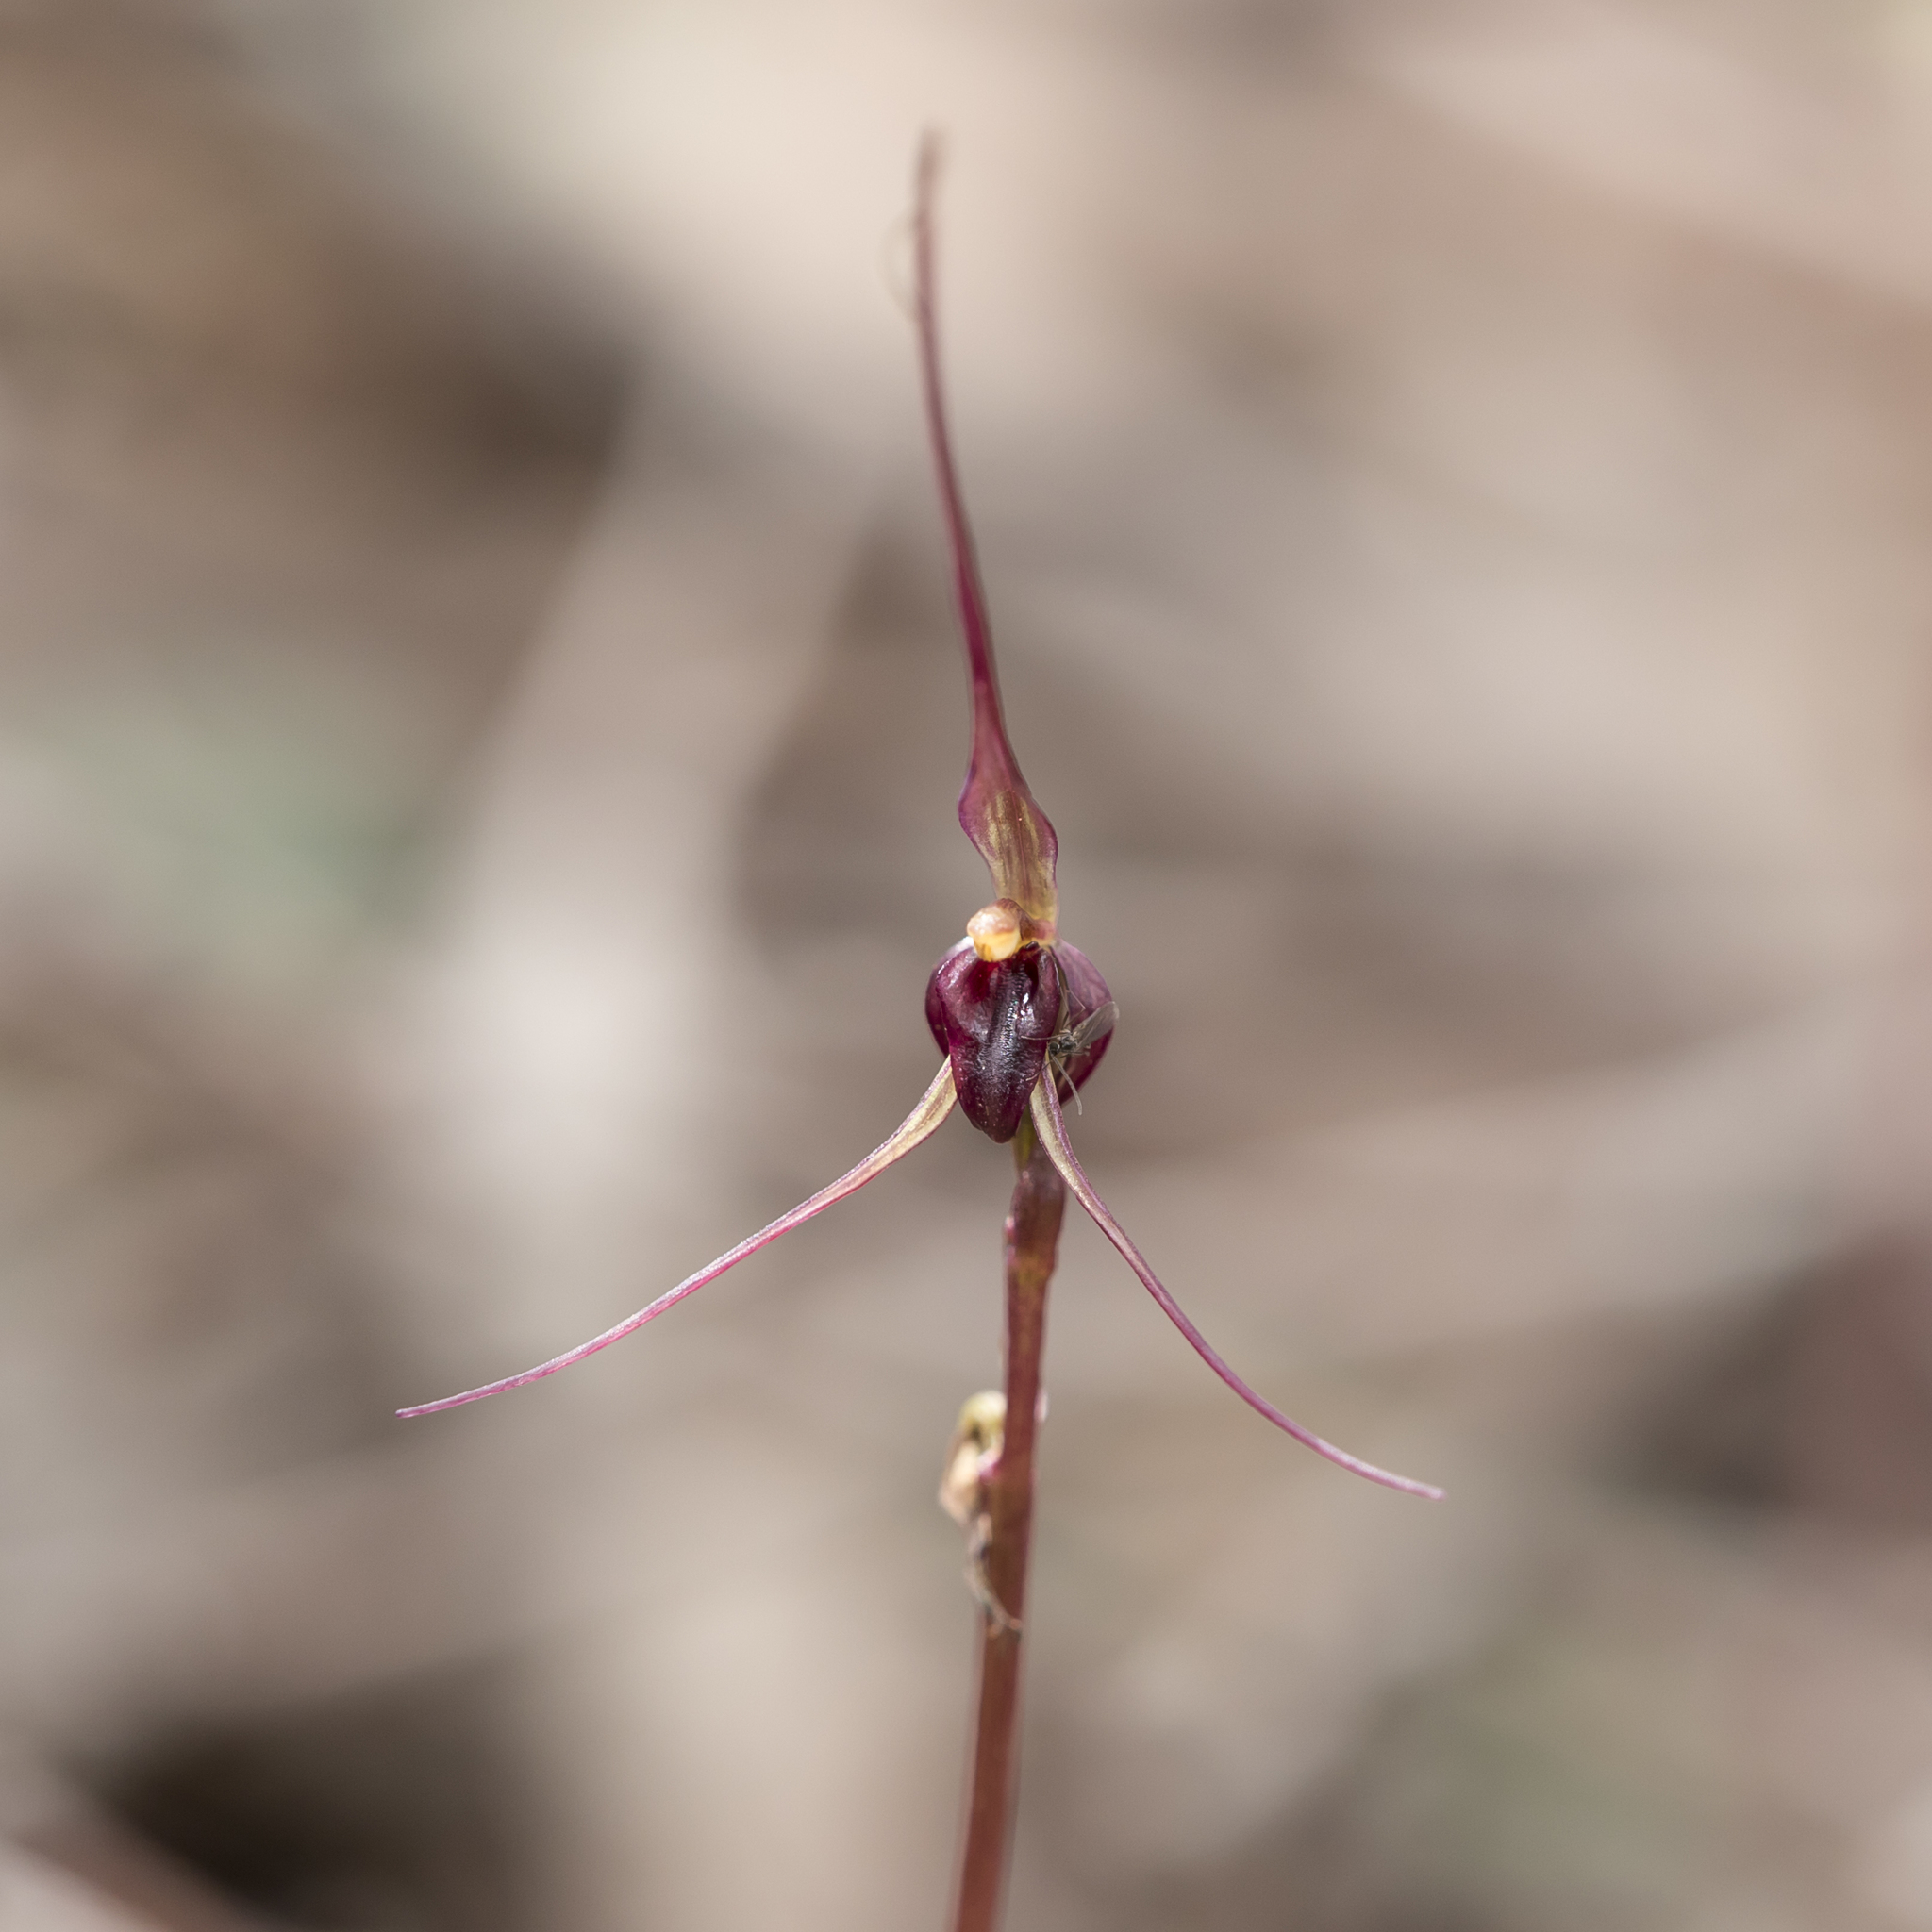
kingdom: Plantae
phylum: Tracheophyta
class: Liliopsida
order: Asparagales
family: Orchidaceae
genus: Acianthus
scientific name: Acianthus caudatus
